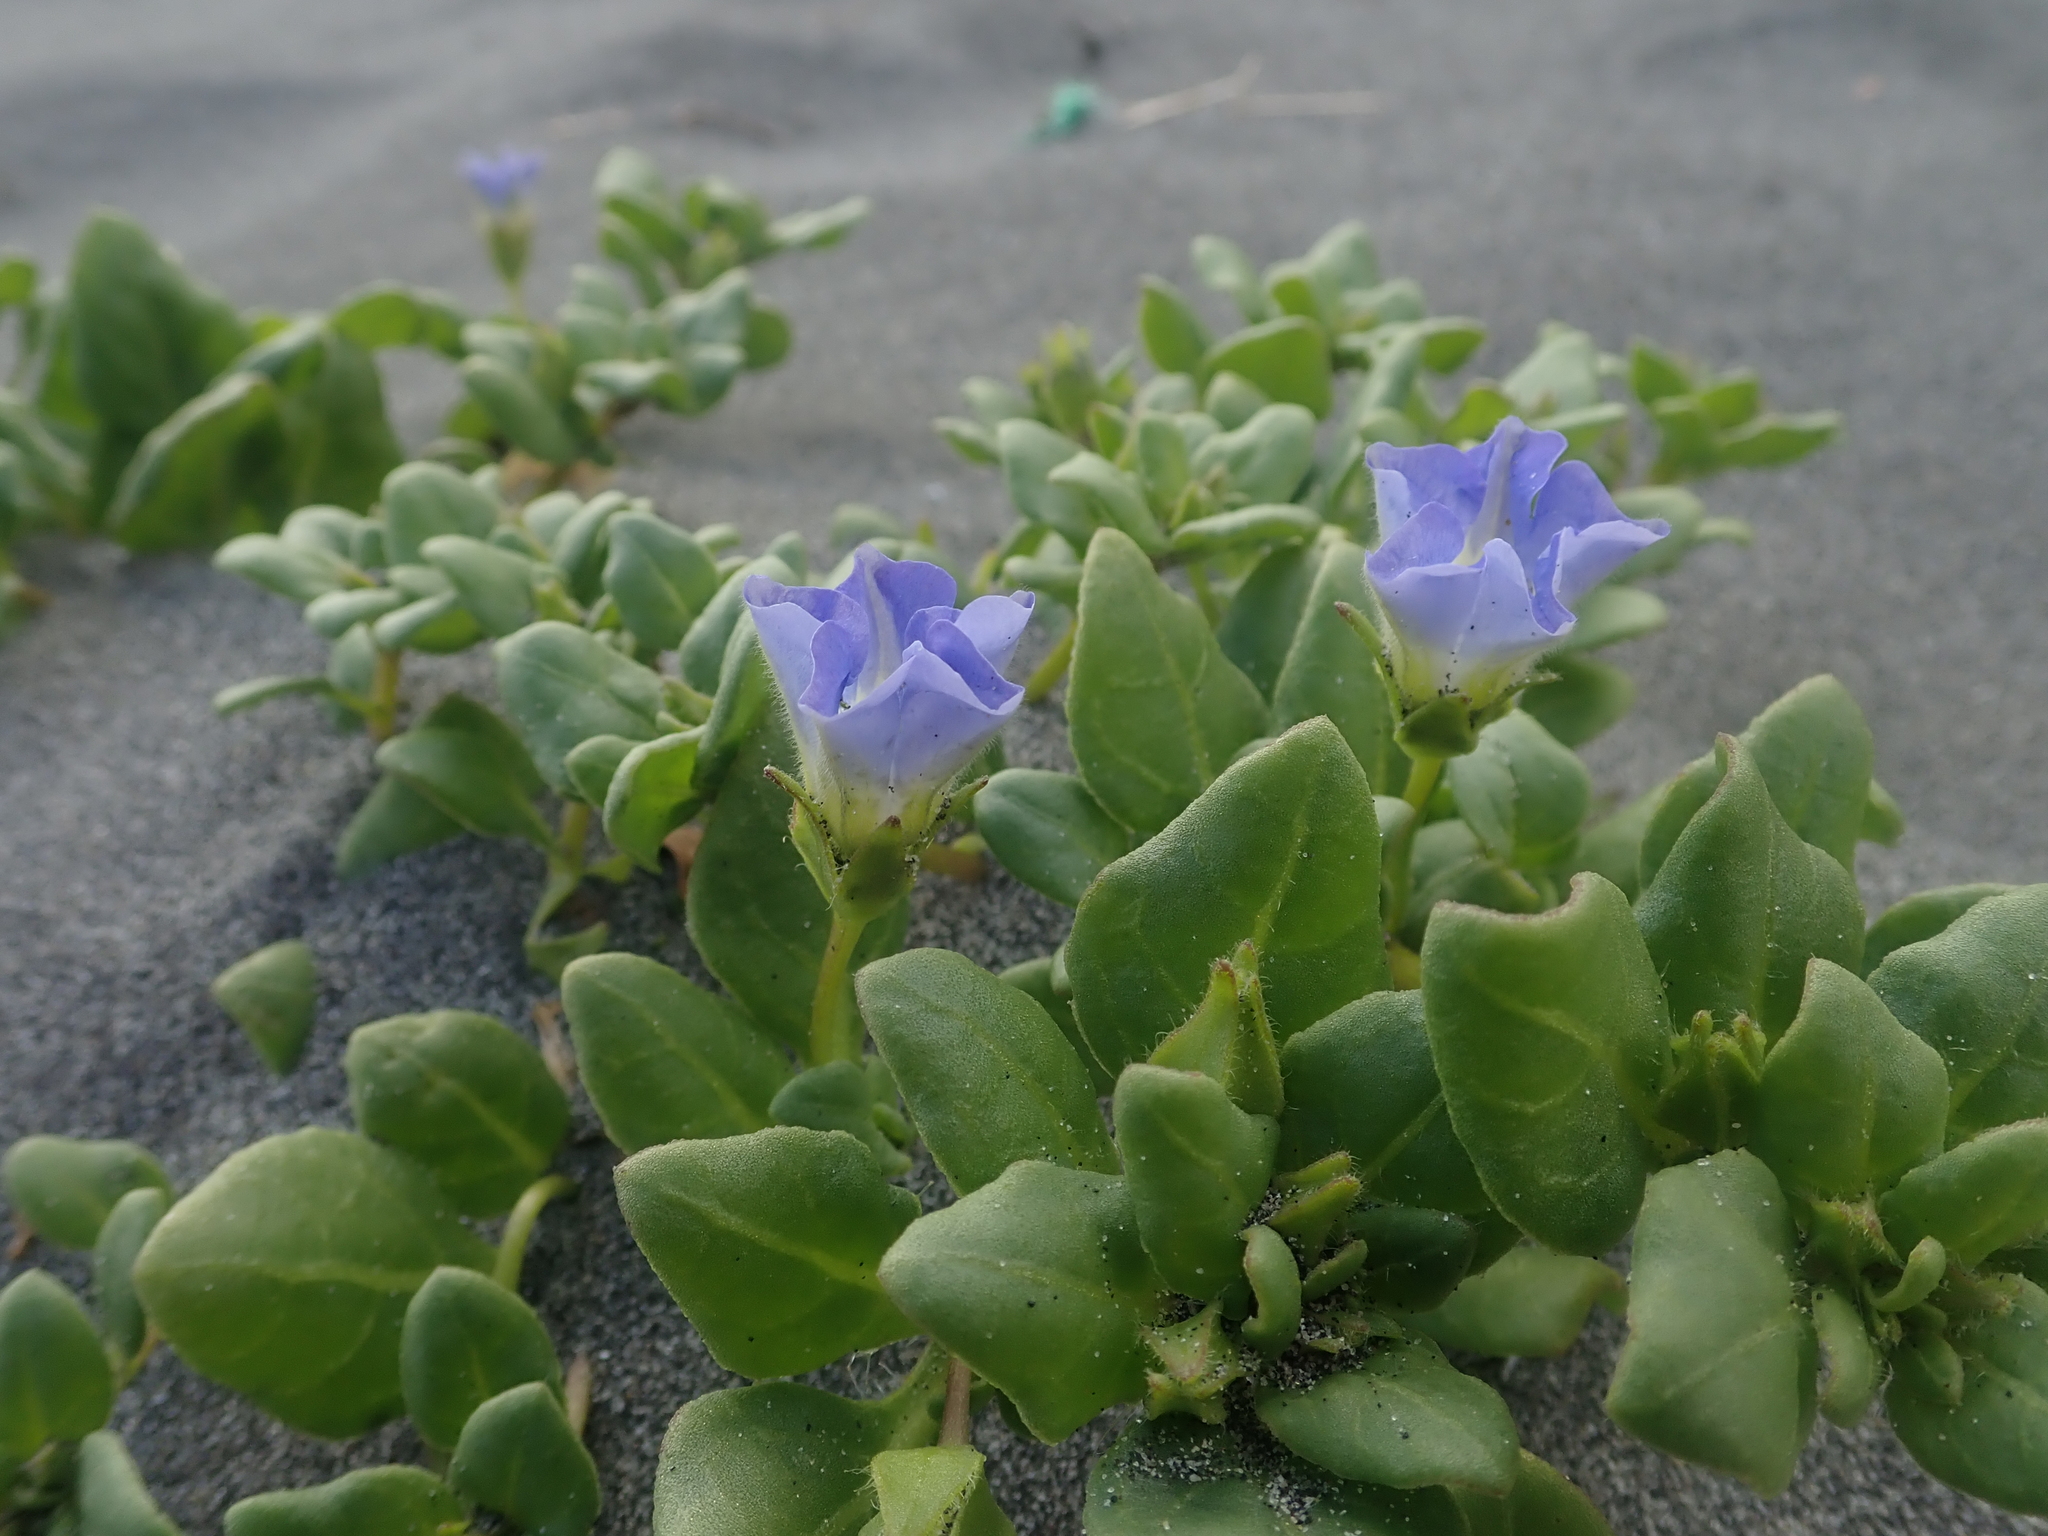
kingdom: Plantae
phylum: Tracheophyta
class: Magnoliopsida
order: Solanales
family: Solanaceae
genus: Nolana
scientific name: Nolana paradoxa
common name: Chilean-bellflower
